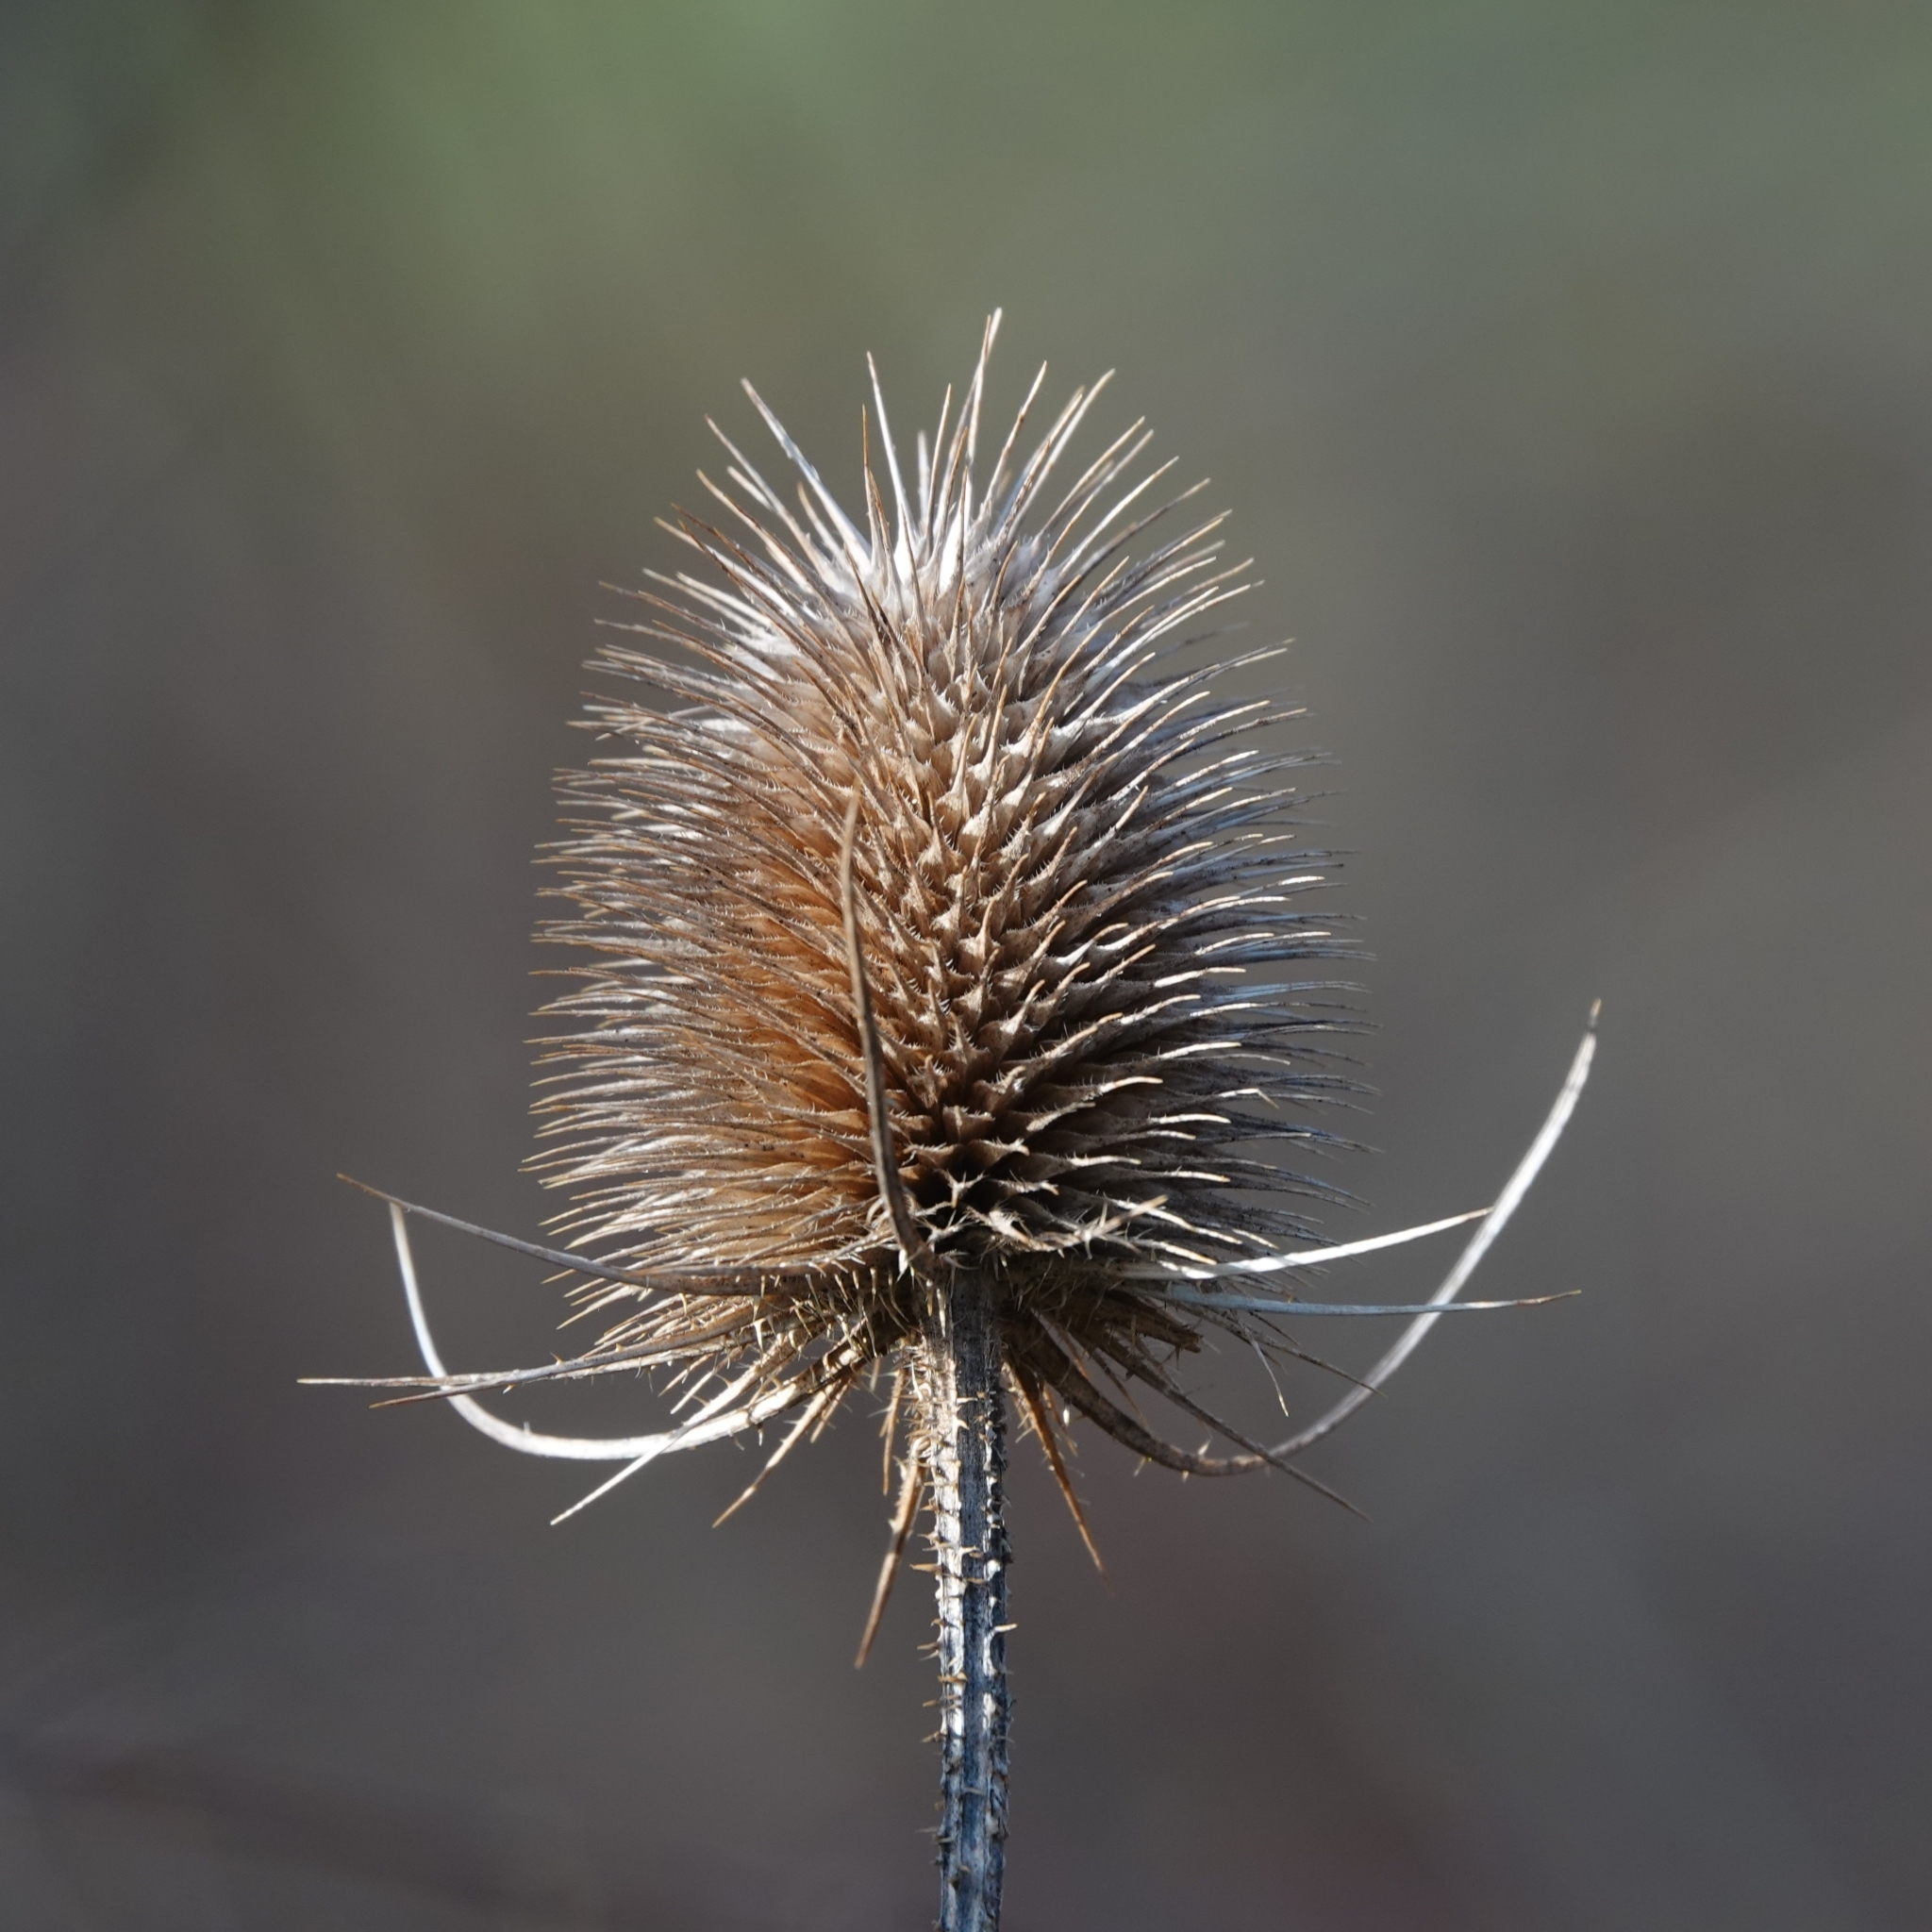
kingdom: Plantae
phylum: Tracheophyta
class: Magnoliopsida
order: Dipsacales
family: Caprifoliaceae
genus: Dipsacus
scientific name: Dipsacus fullonum
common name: Teasel
